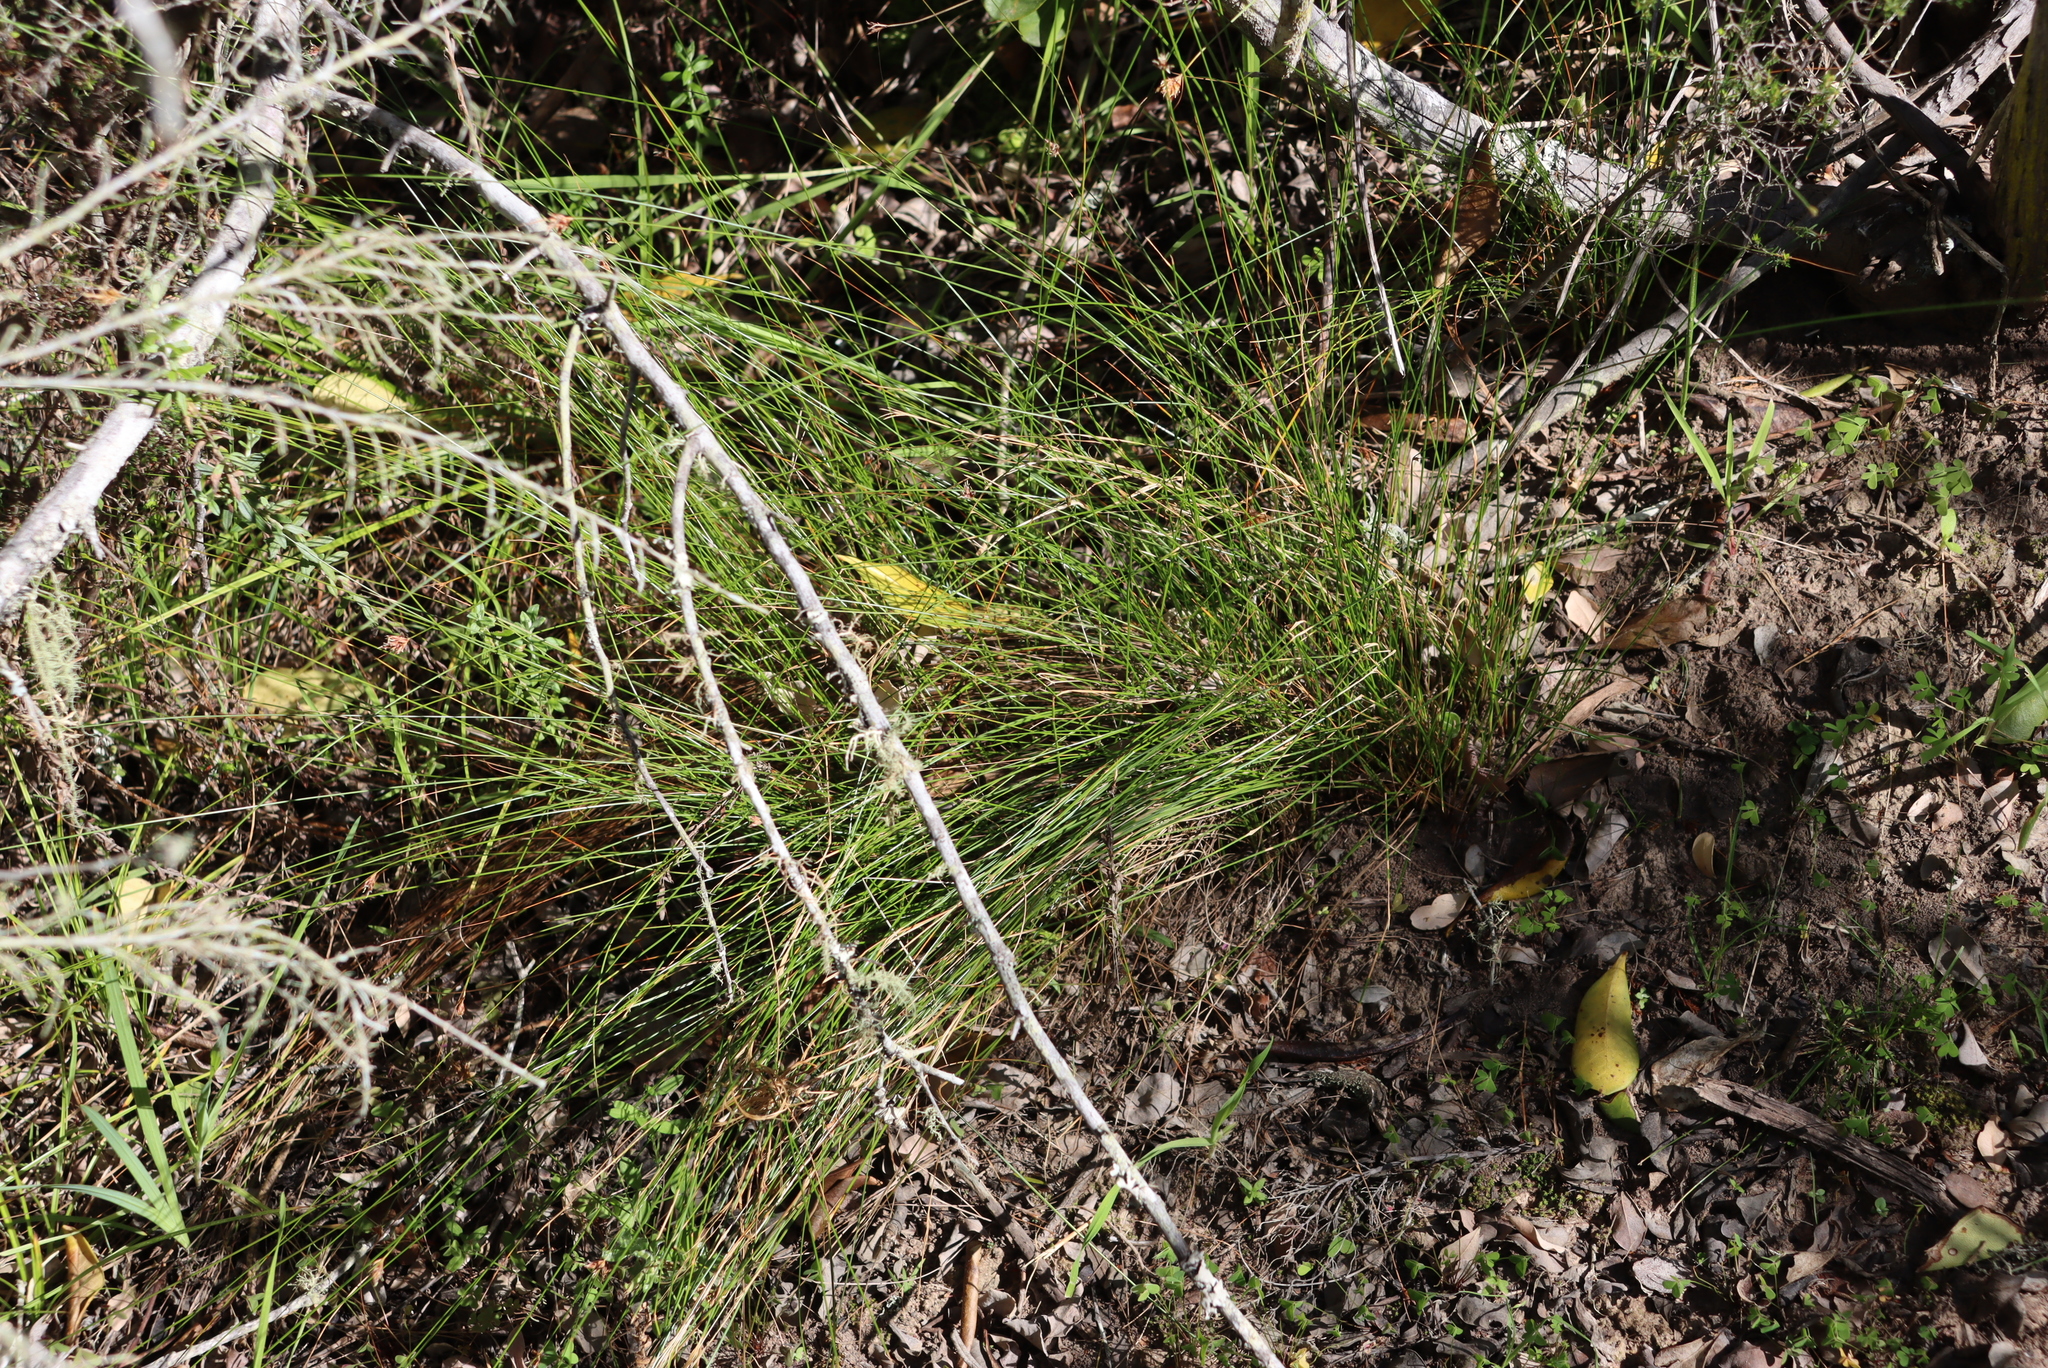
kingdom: Plantae
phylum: Tracheophyta
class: Liliopsida
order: Poales
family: Cyperaceae
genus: Ficinia
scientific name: Ficinia fastigiata
